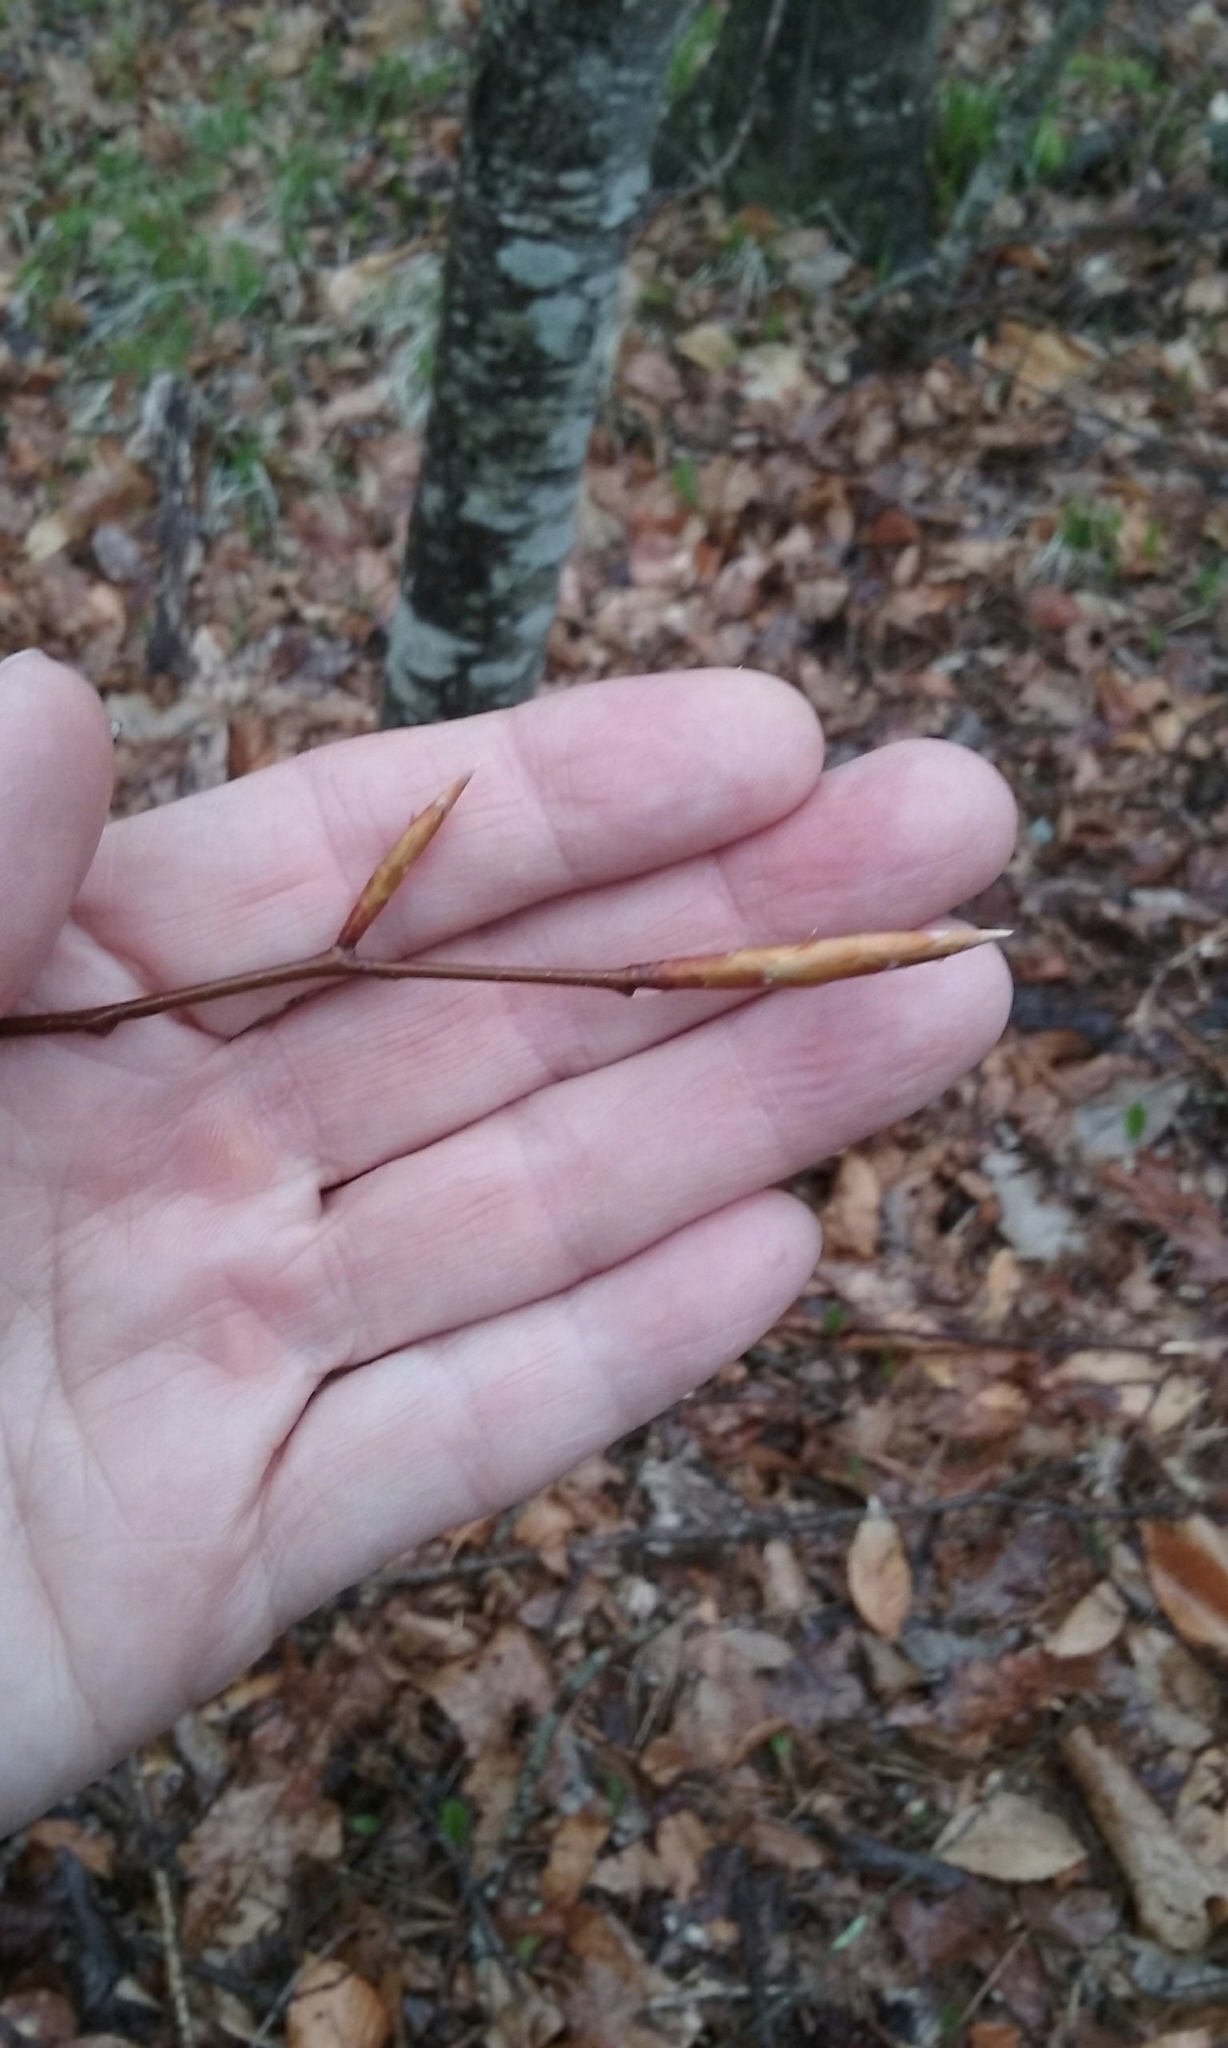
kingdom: Plantae
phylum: Tracheophyta
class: Magnoliopsida
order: Fagales
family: Fagaceae
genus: Fagus
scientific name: Fagus grandifolia
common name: American beech
